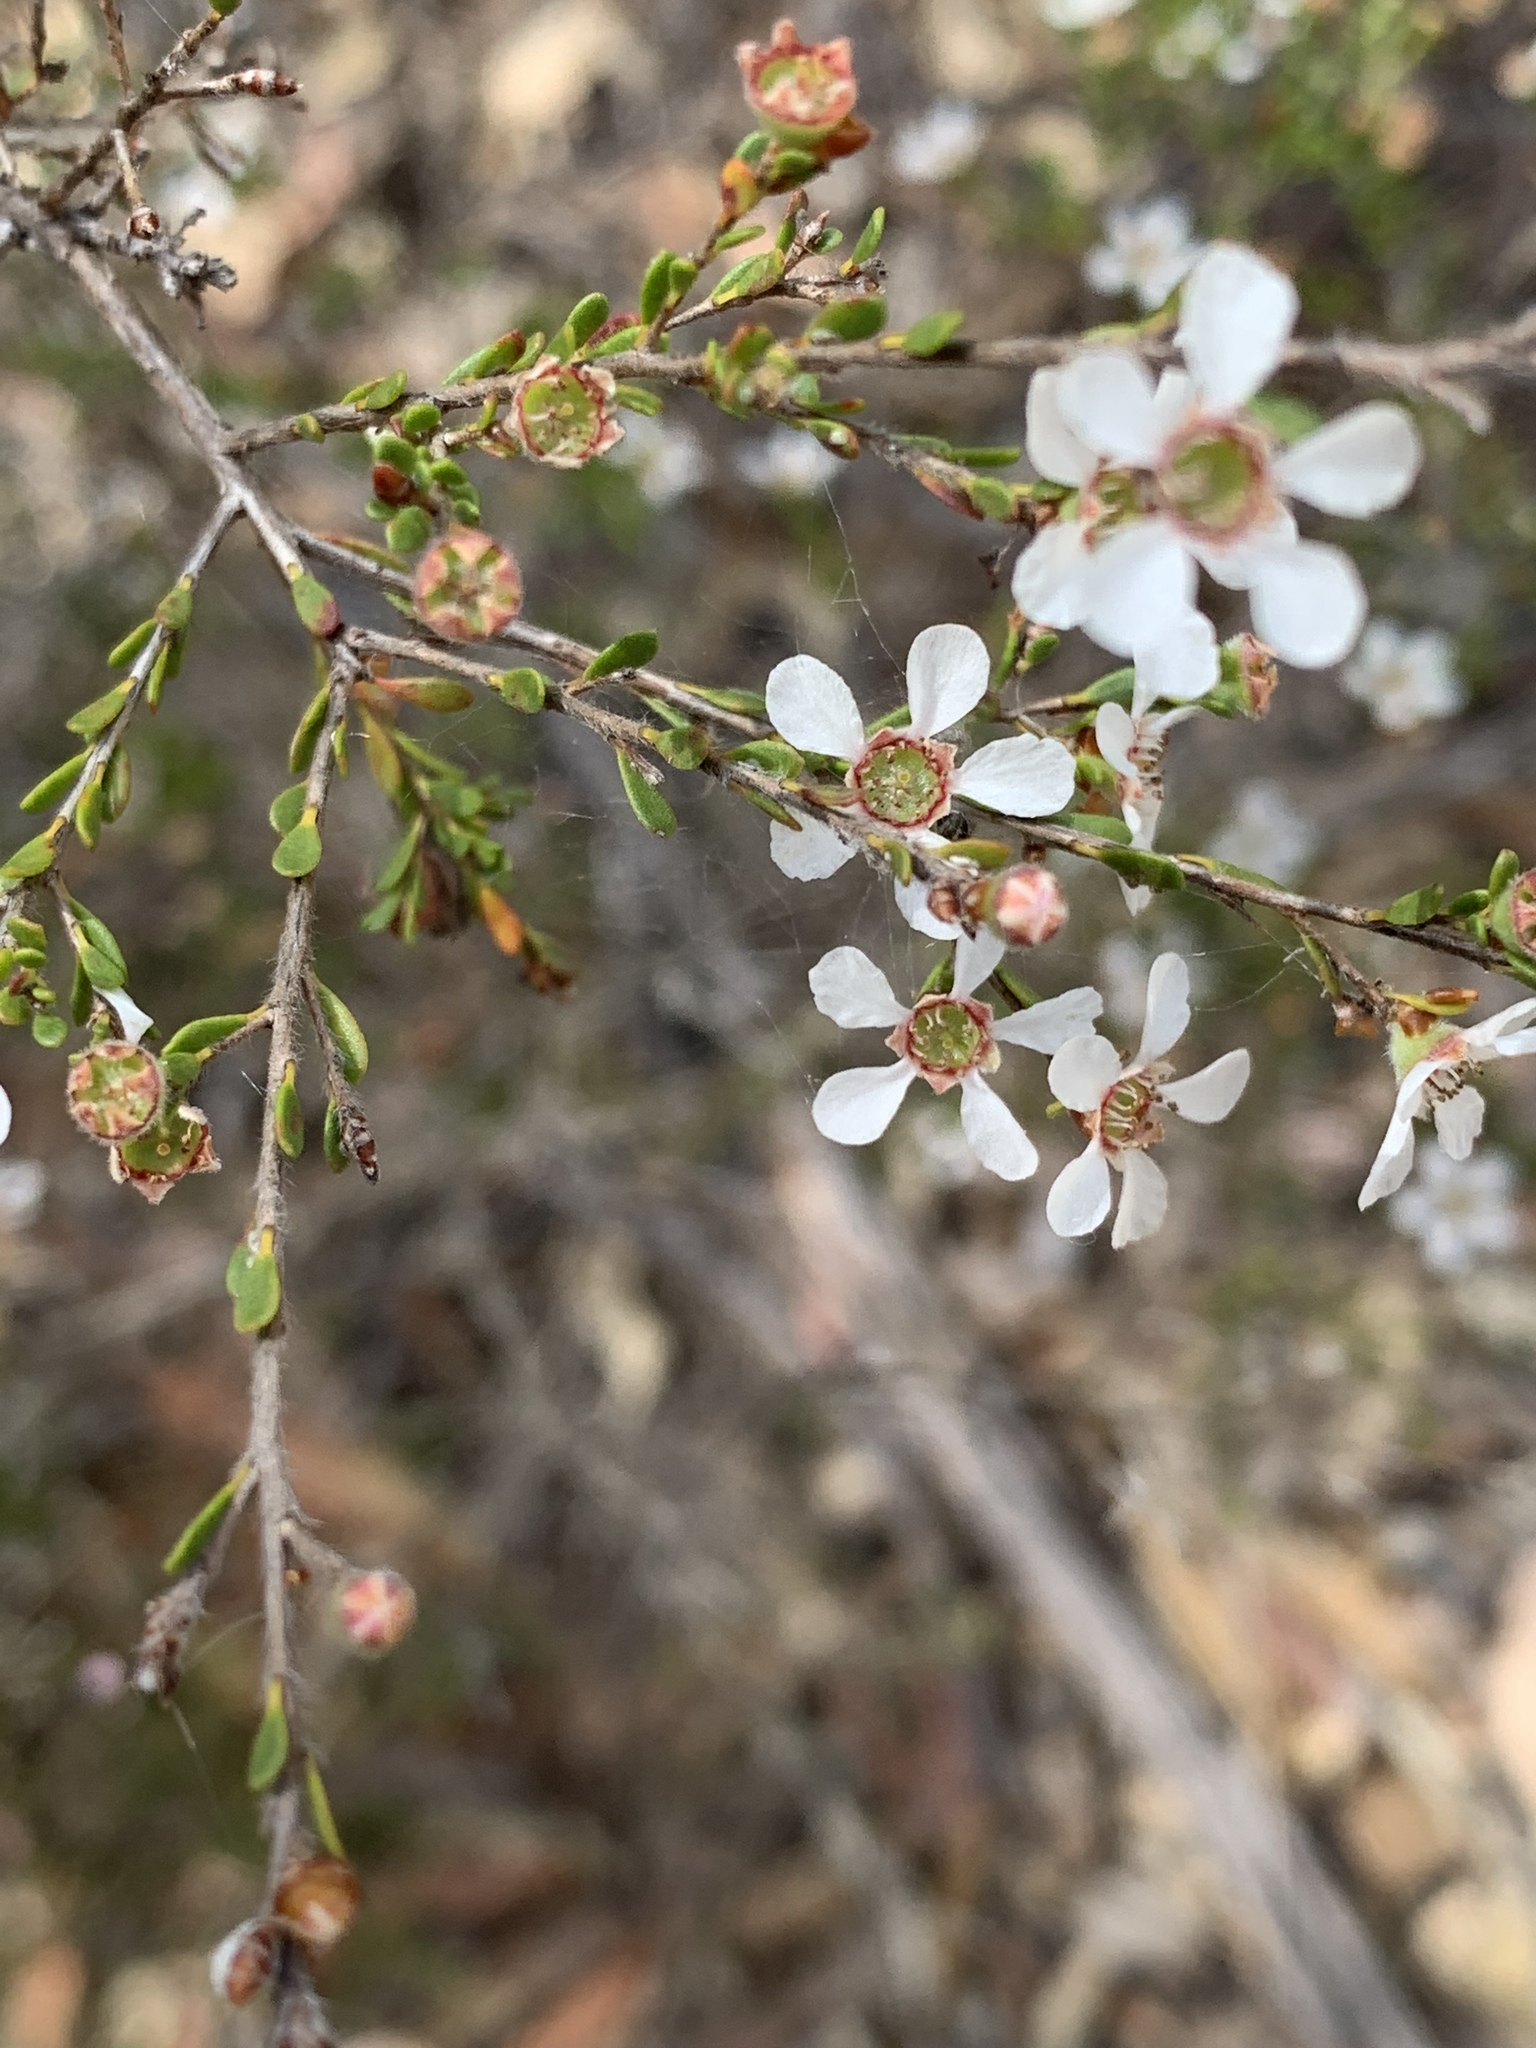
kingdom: Plantae
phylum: Tracheophyta
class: Magnoliopsida
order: Myrtales
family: Myrtaceae
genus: Leptospermum
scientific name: Leptospermum parvifolium
